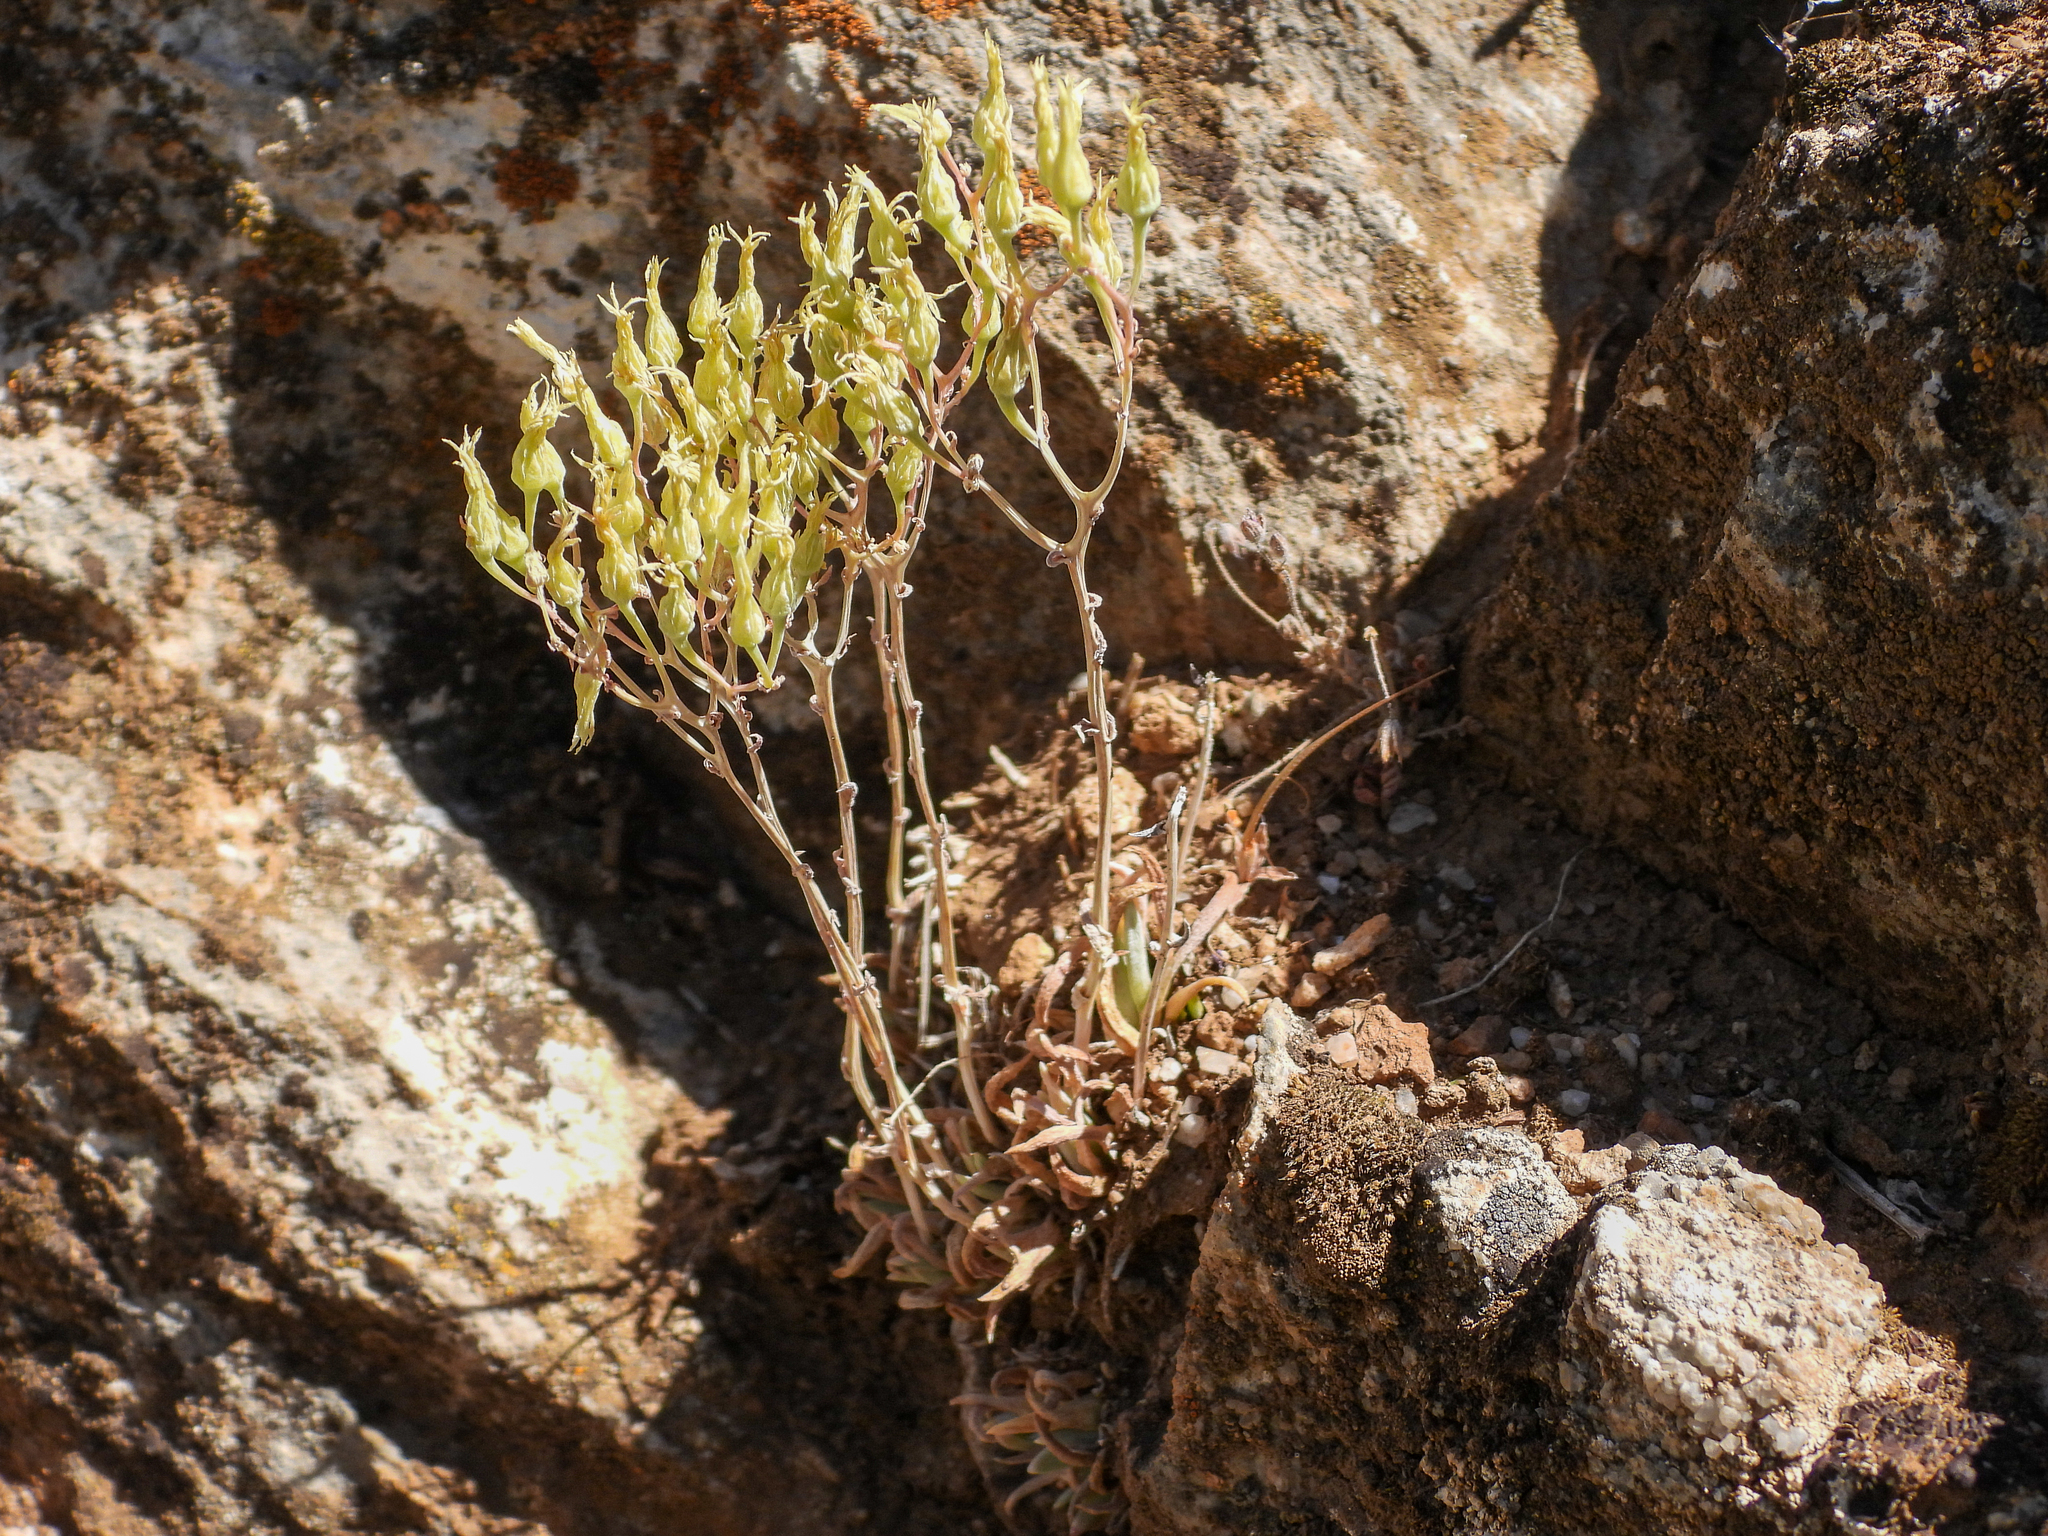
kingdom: Plantae
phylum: Tracheophyta
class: Magnoliopsida
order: Saxifragales
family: Crassulaceae
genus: Dudleya
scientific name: Dudleya calcicola
